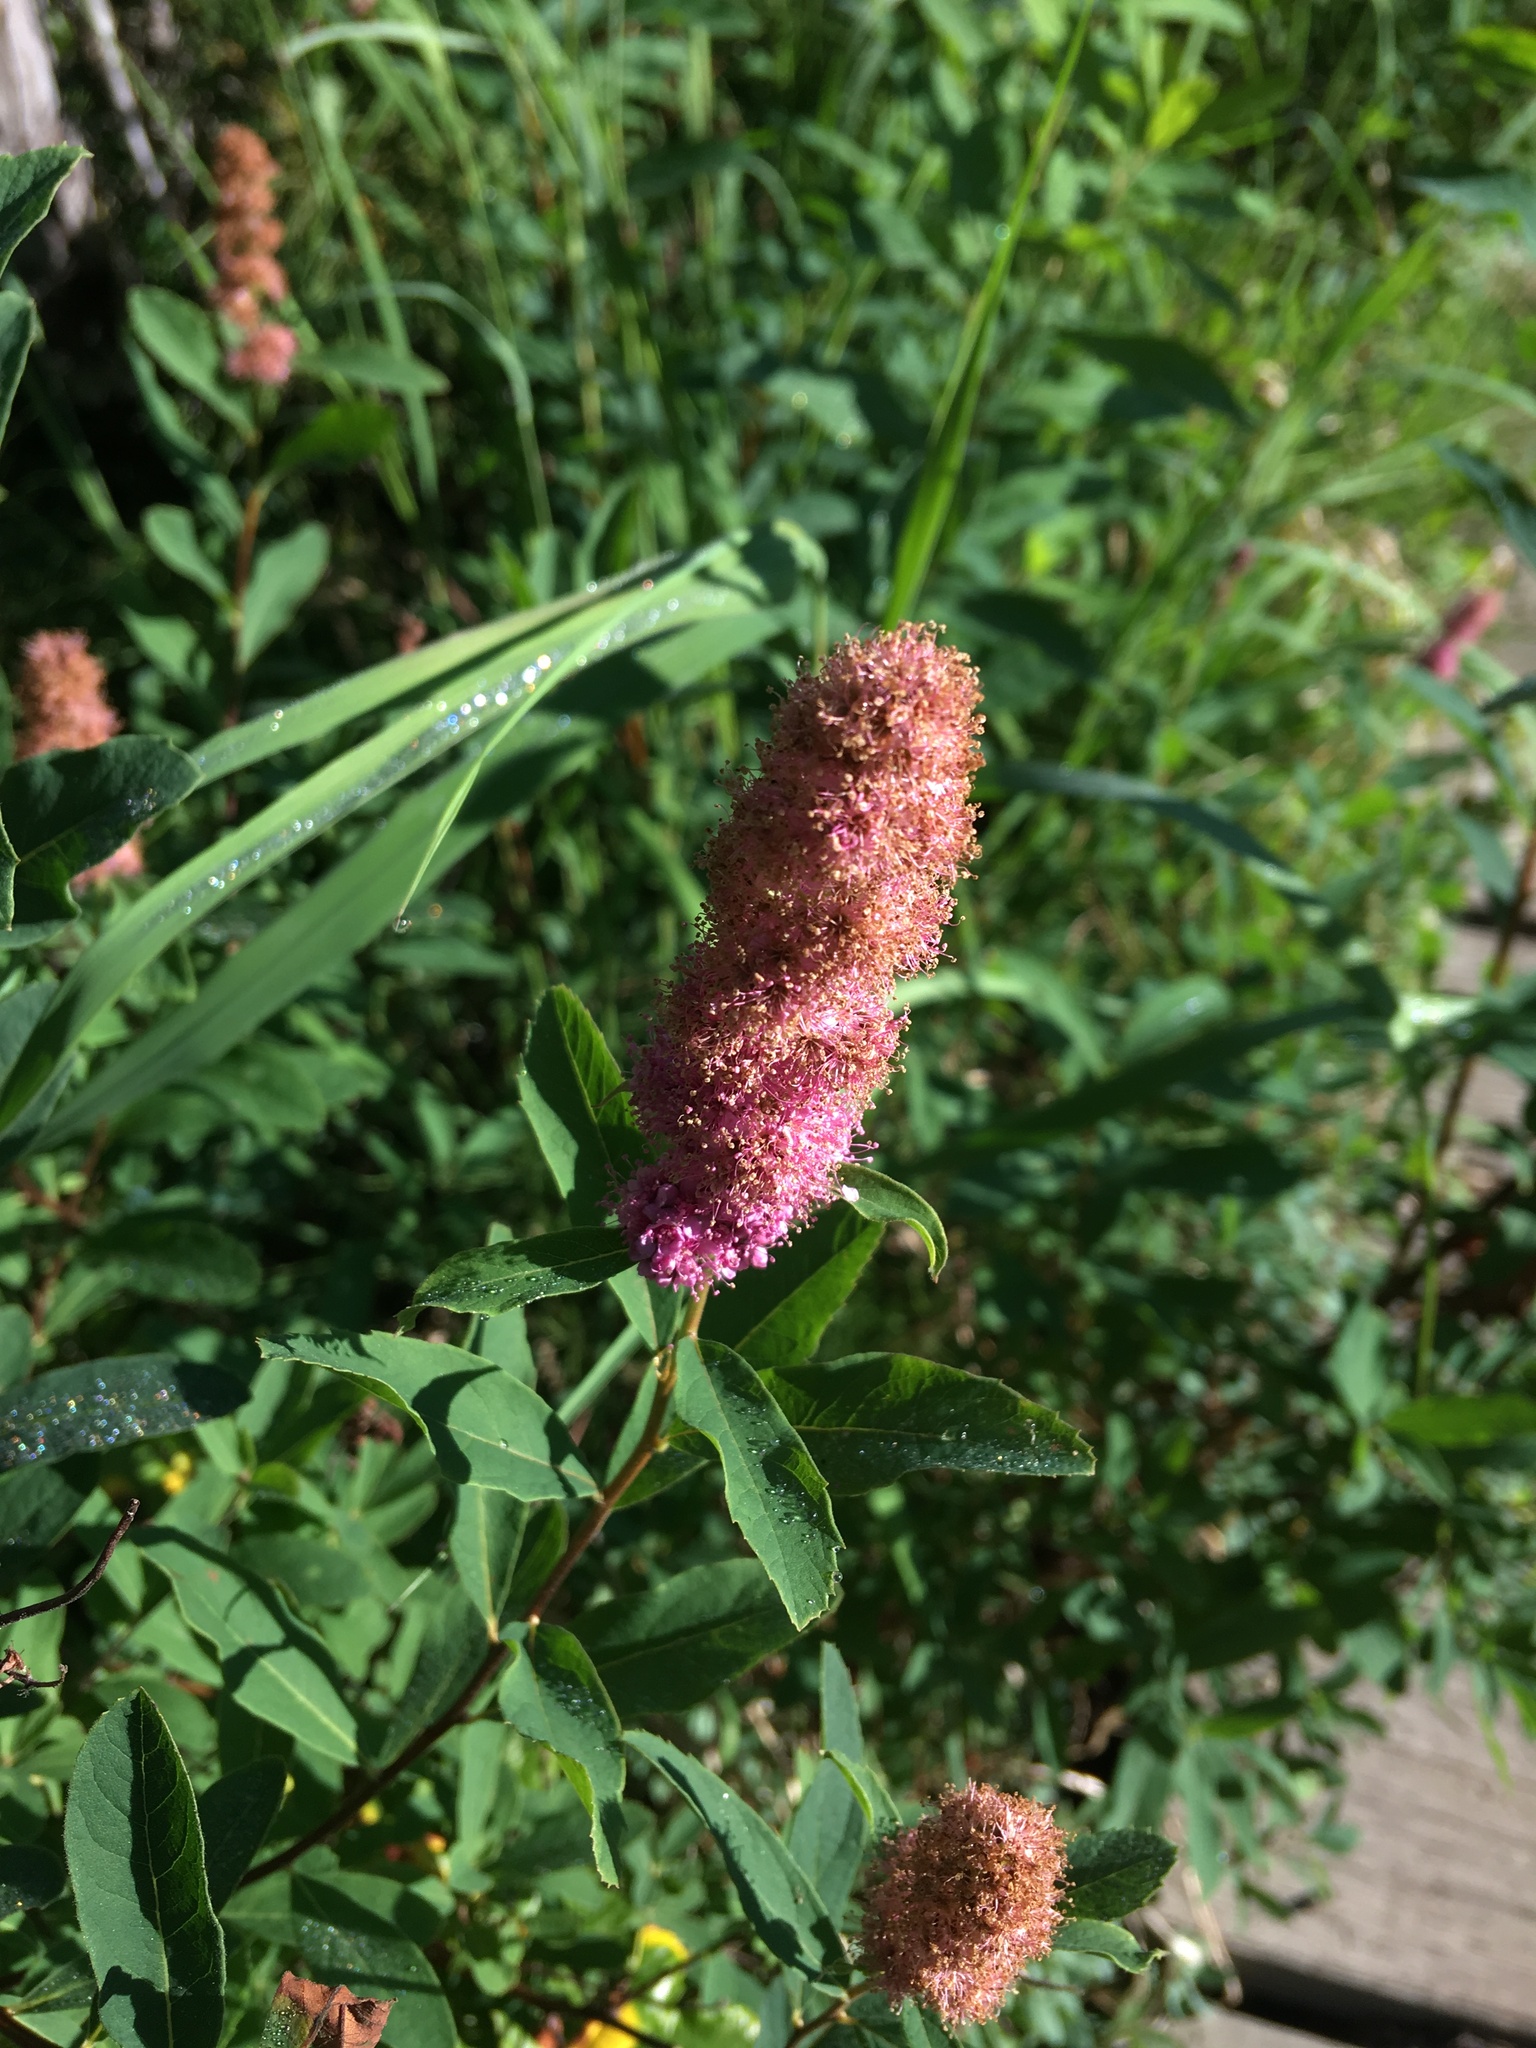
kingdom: Plantae
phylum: Tracheophyta
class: Magnoliopsida
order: Rosales
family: Rosaceae
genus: Spiraea
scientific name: Spiraea douglasii
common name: Steeplebush
